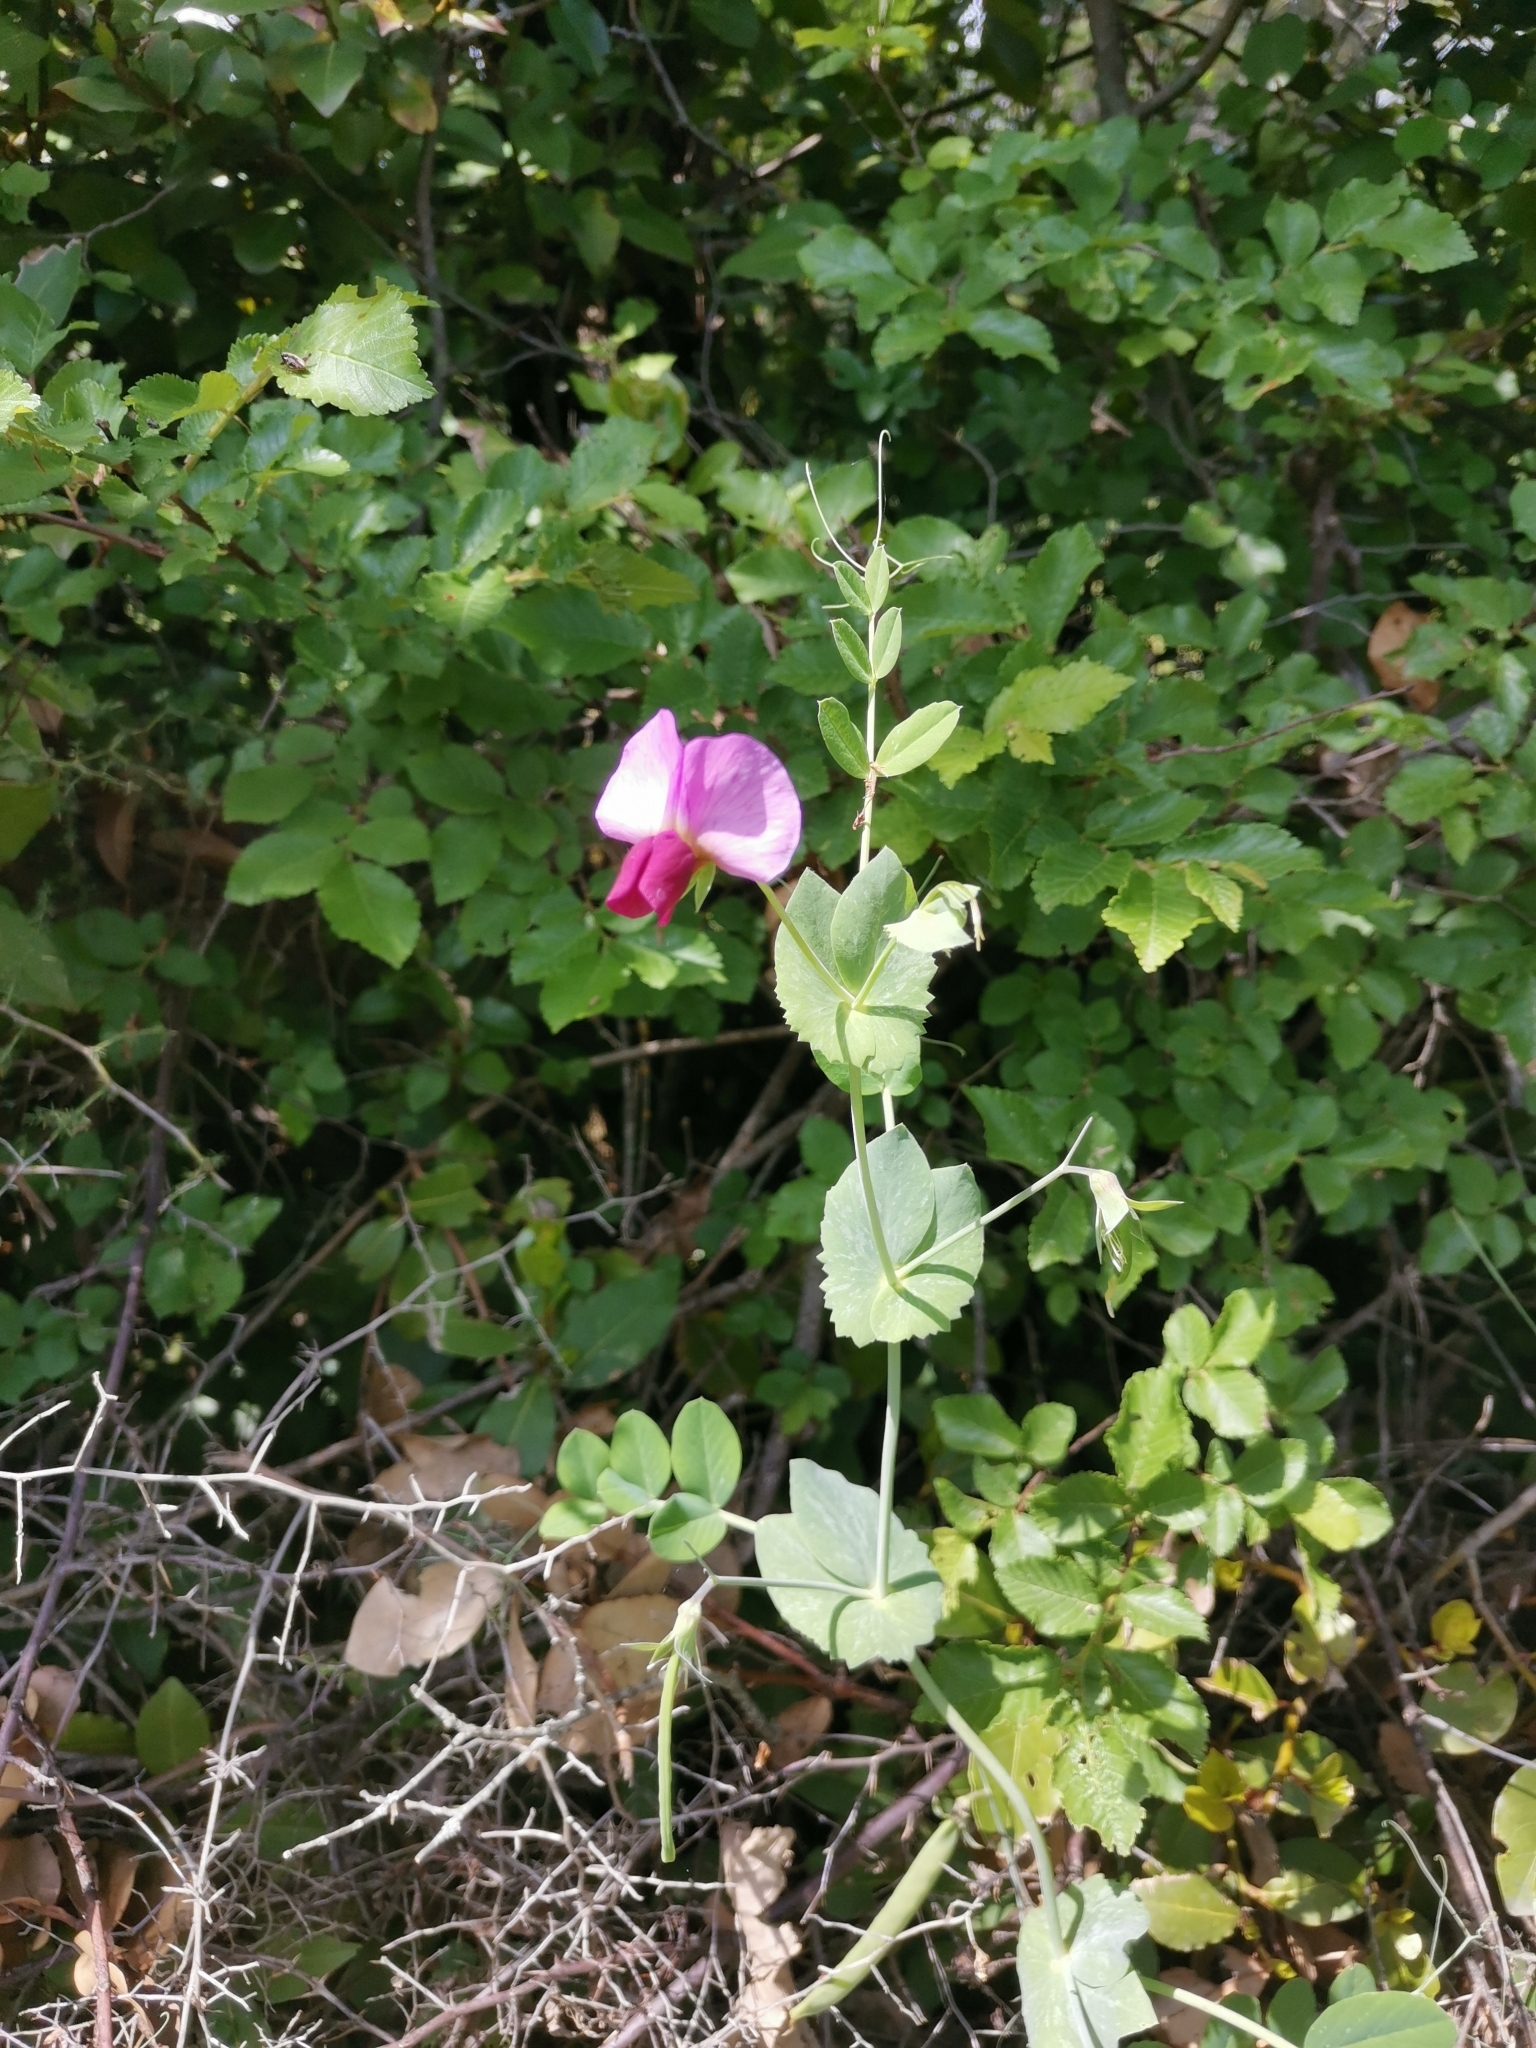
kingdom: Plantae
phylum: Tracheophyta
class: Magnoliopsida
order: Fabales
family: Fabaceae
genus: Lathyrus
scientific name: Lathyrus oleraceus
